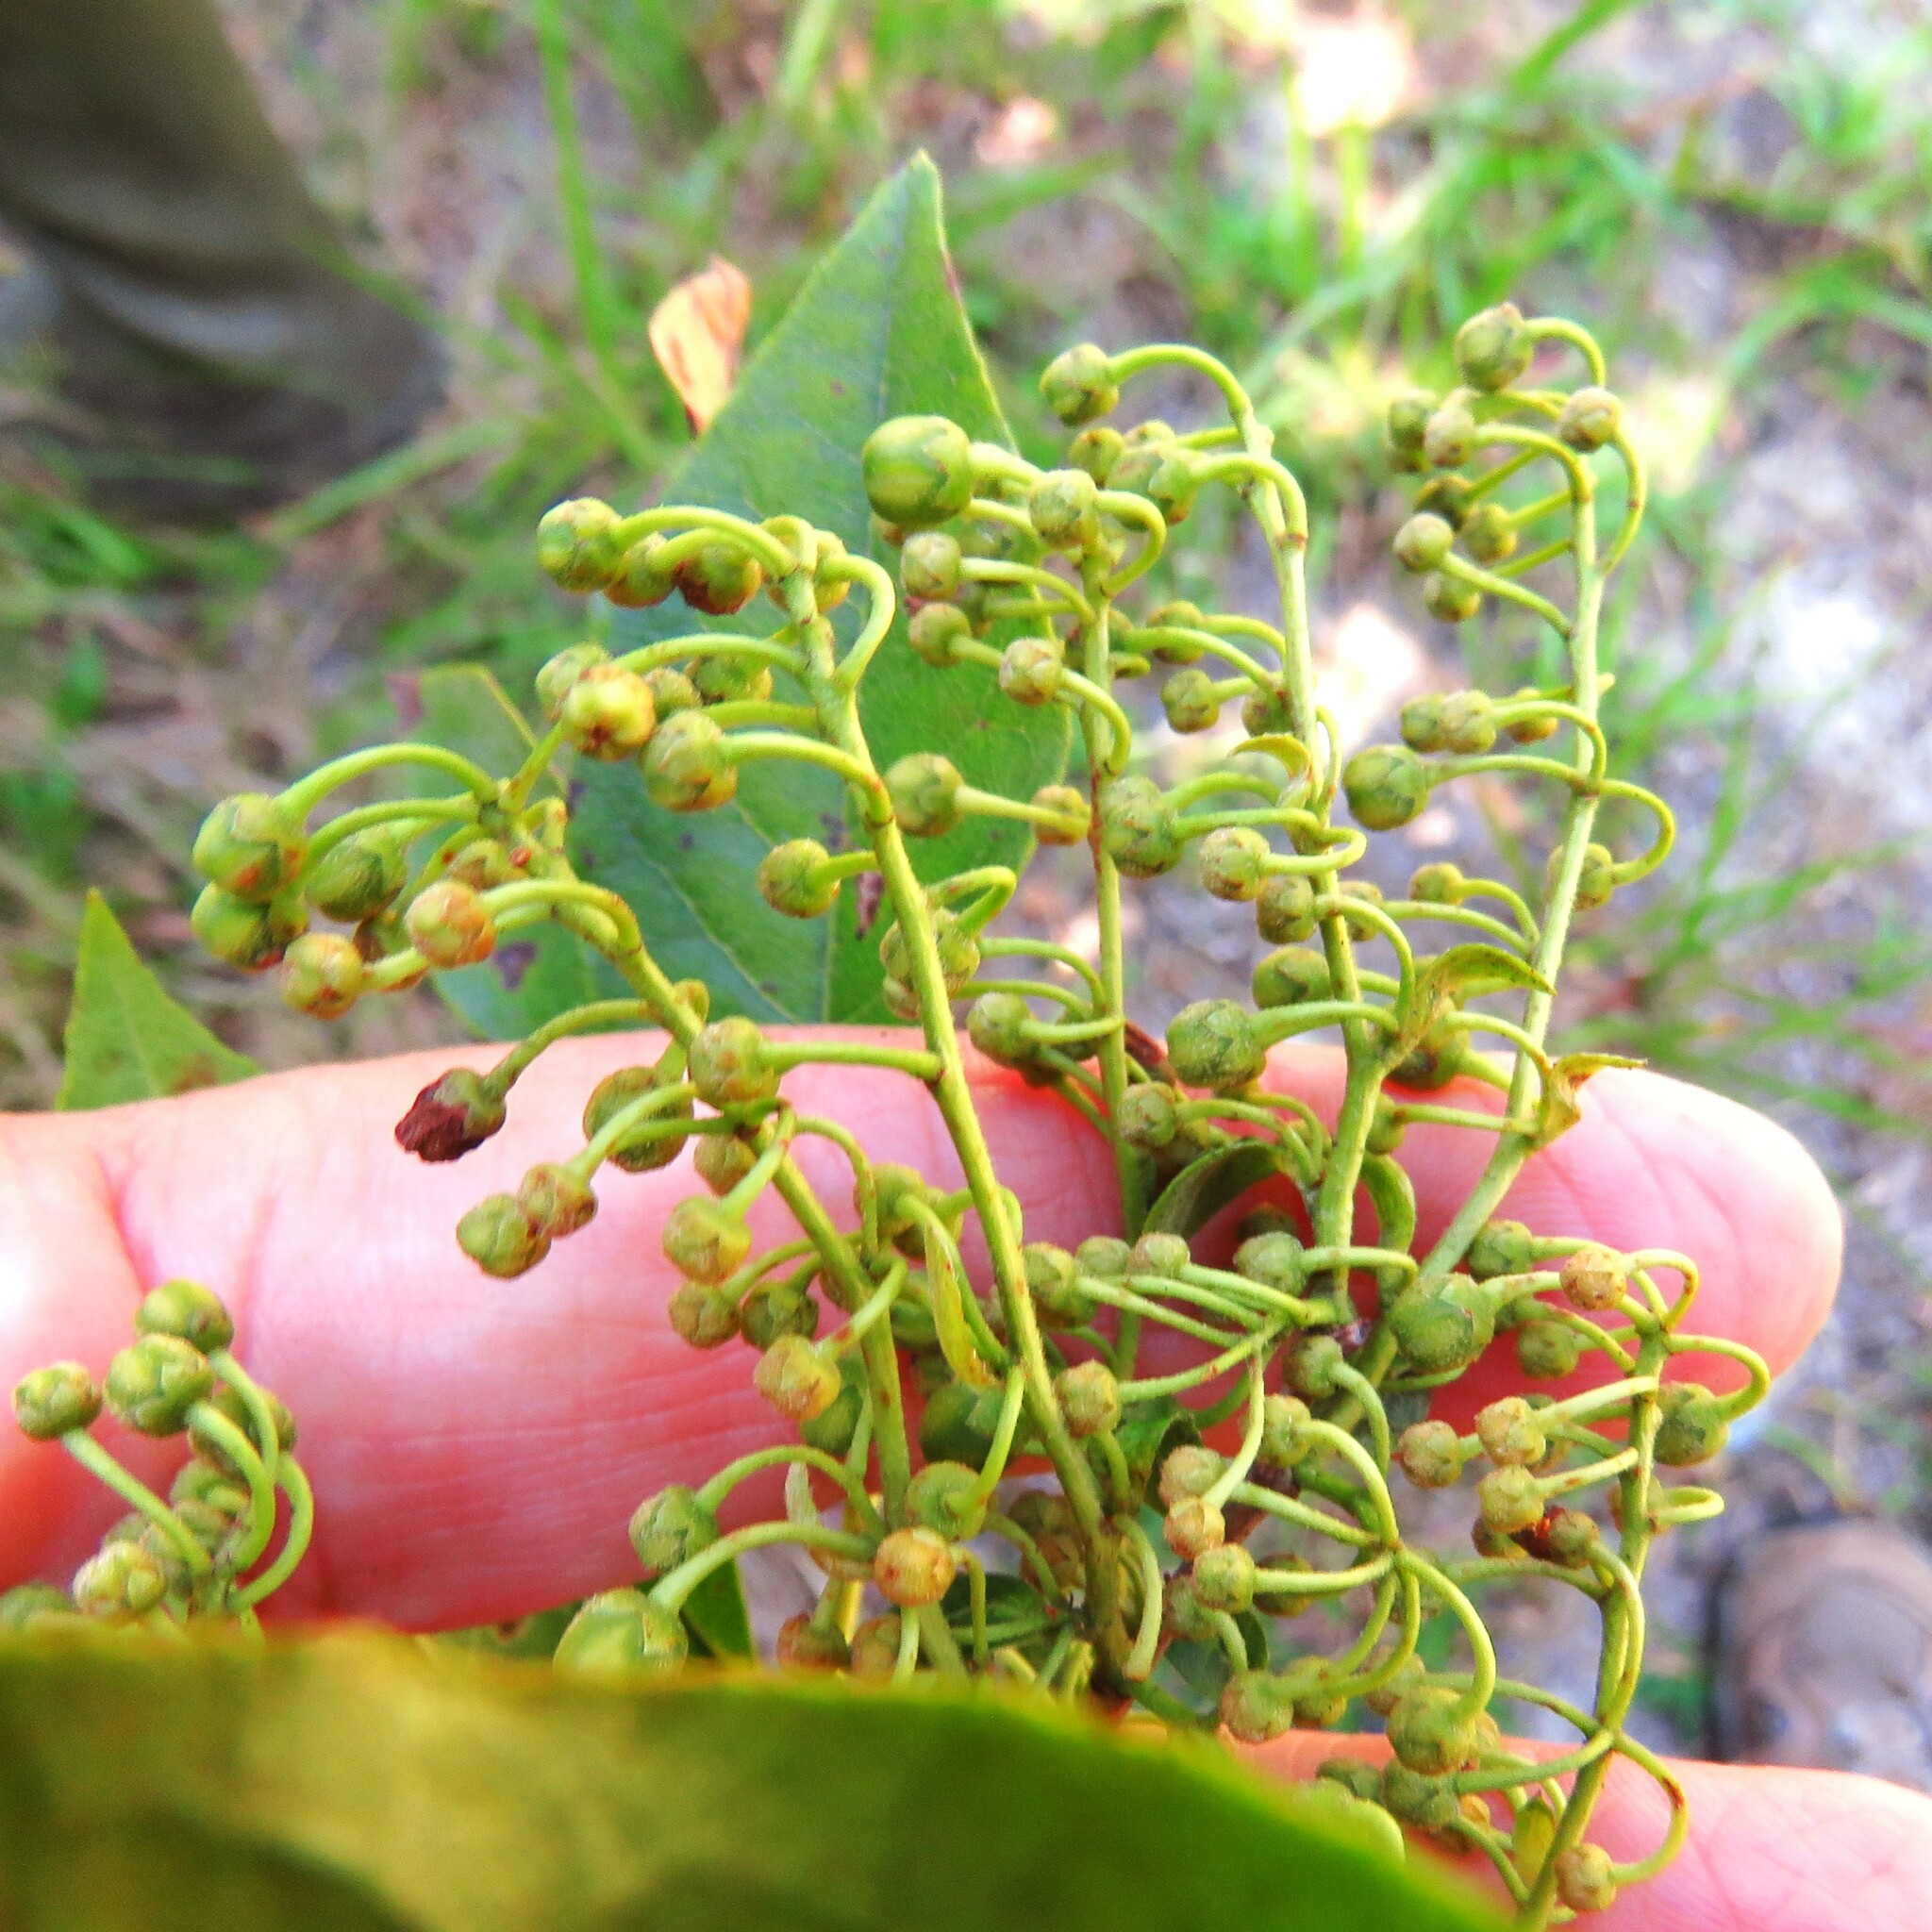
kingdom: Plantae
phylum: Tracheophyta
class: Magnoliopsida
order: Ericales
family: Ericaceae
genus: Lyonia
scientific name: Lyonia ligustrina
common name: Maleberry
